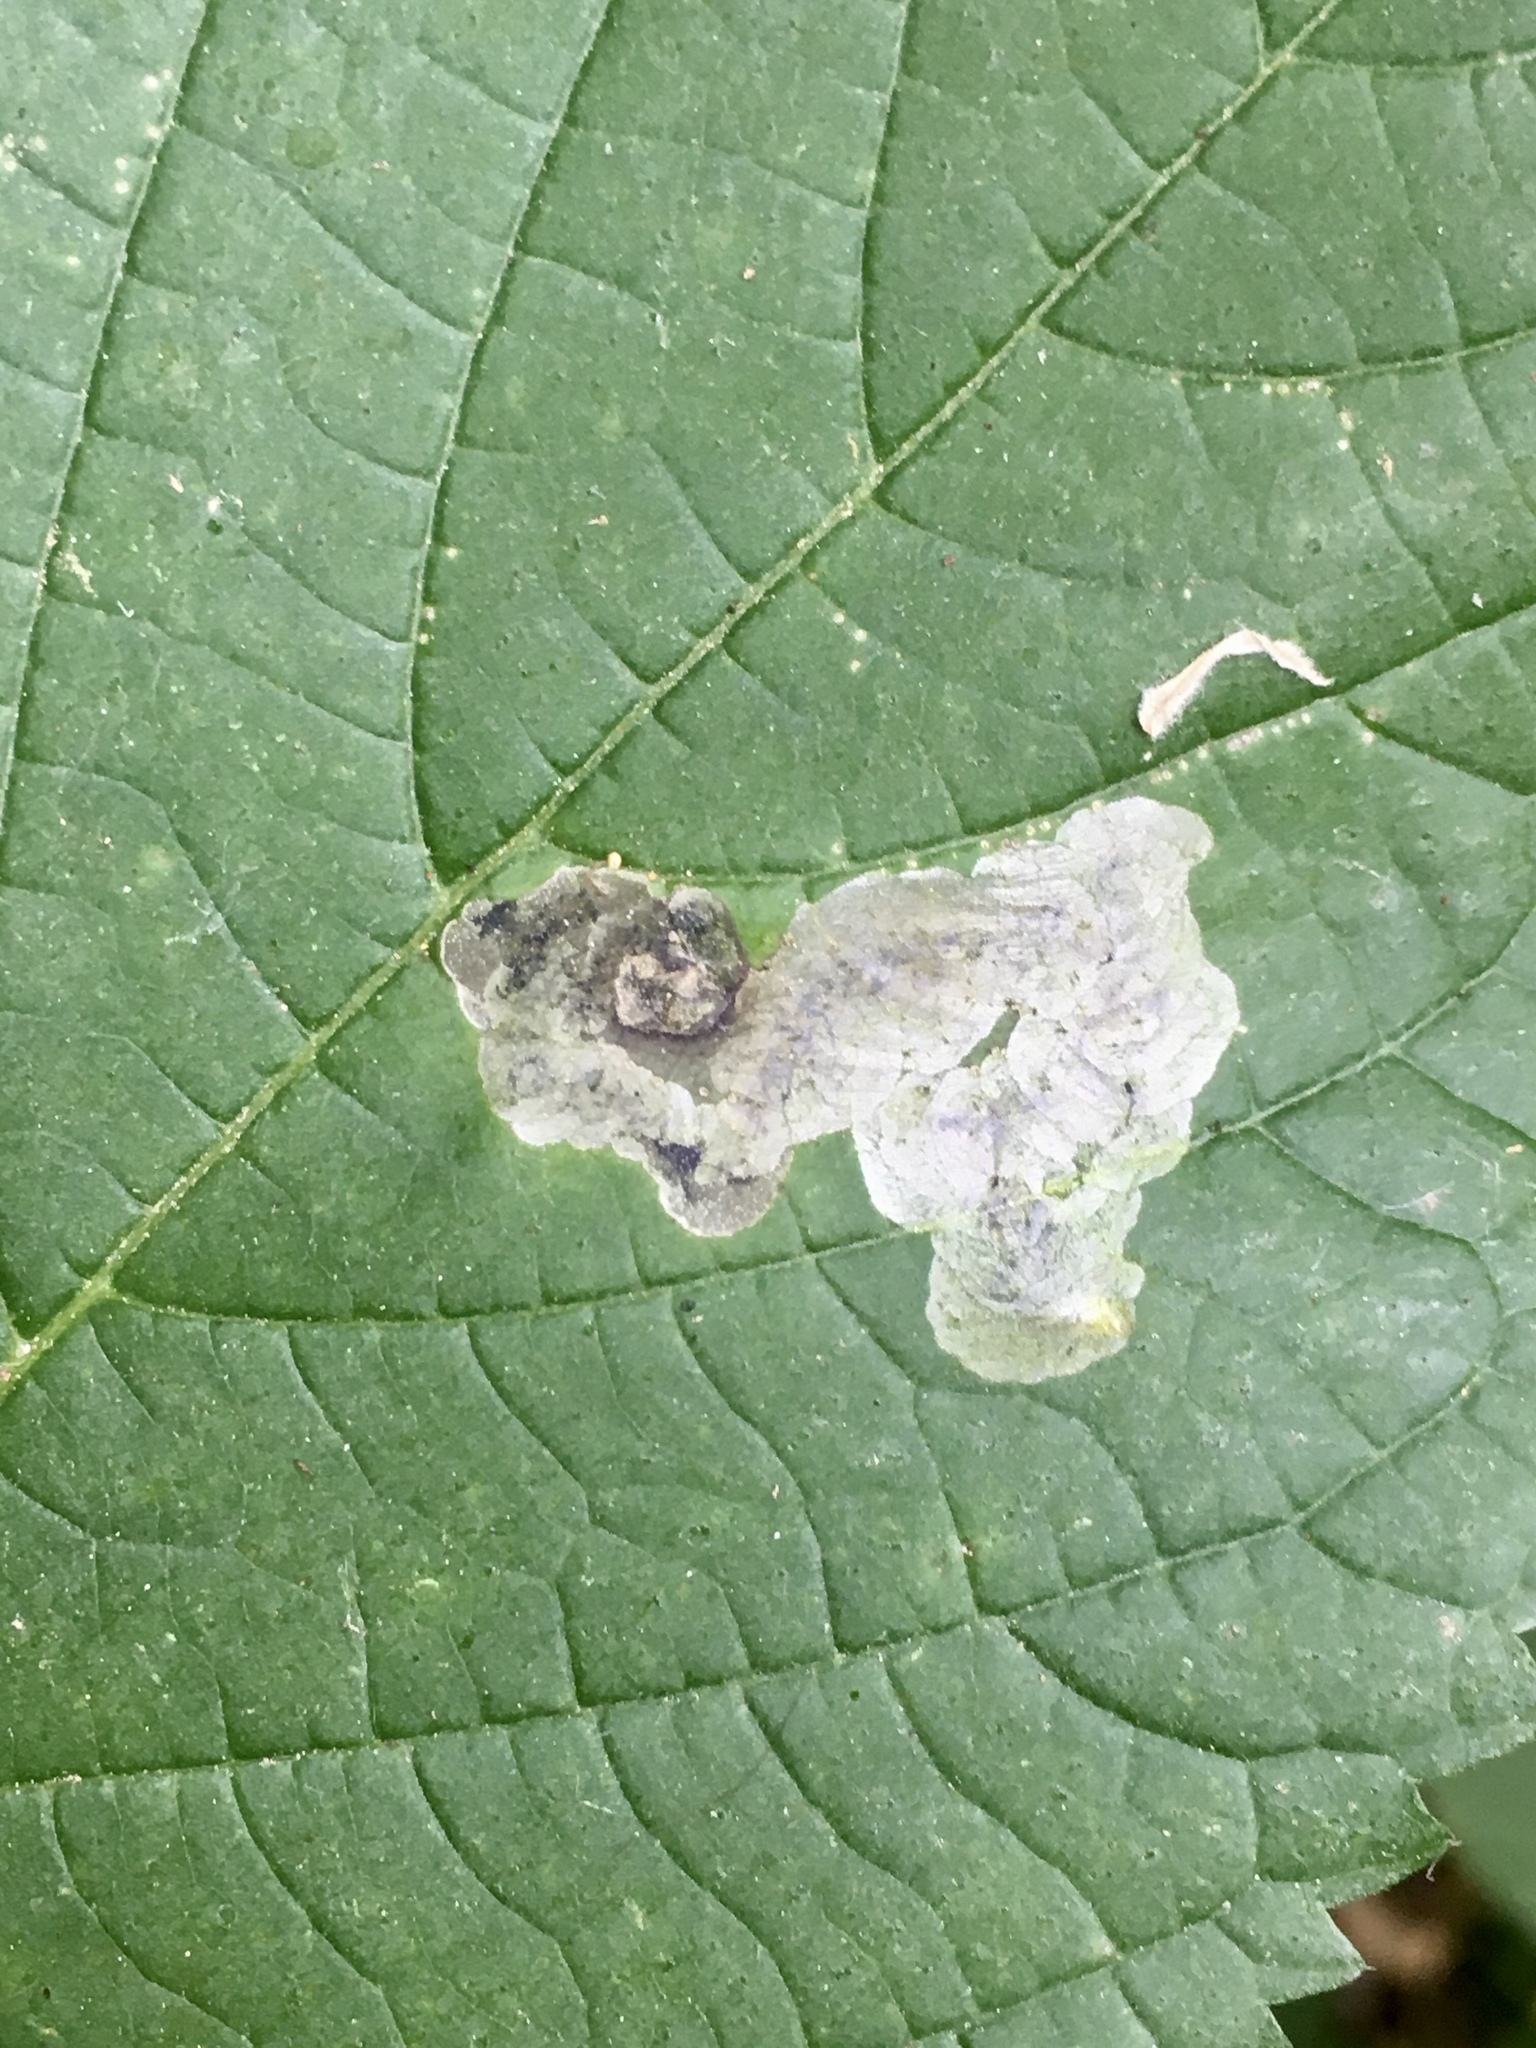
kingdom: Animalia
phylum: Arthropoda
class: Insecta
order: Diptera
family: Agromyzidae
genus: Agromyza
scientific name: Agromyza diversa
